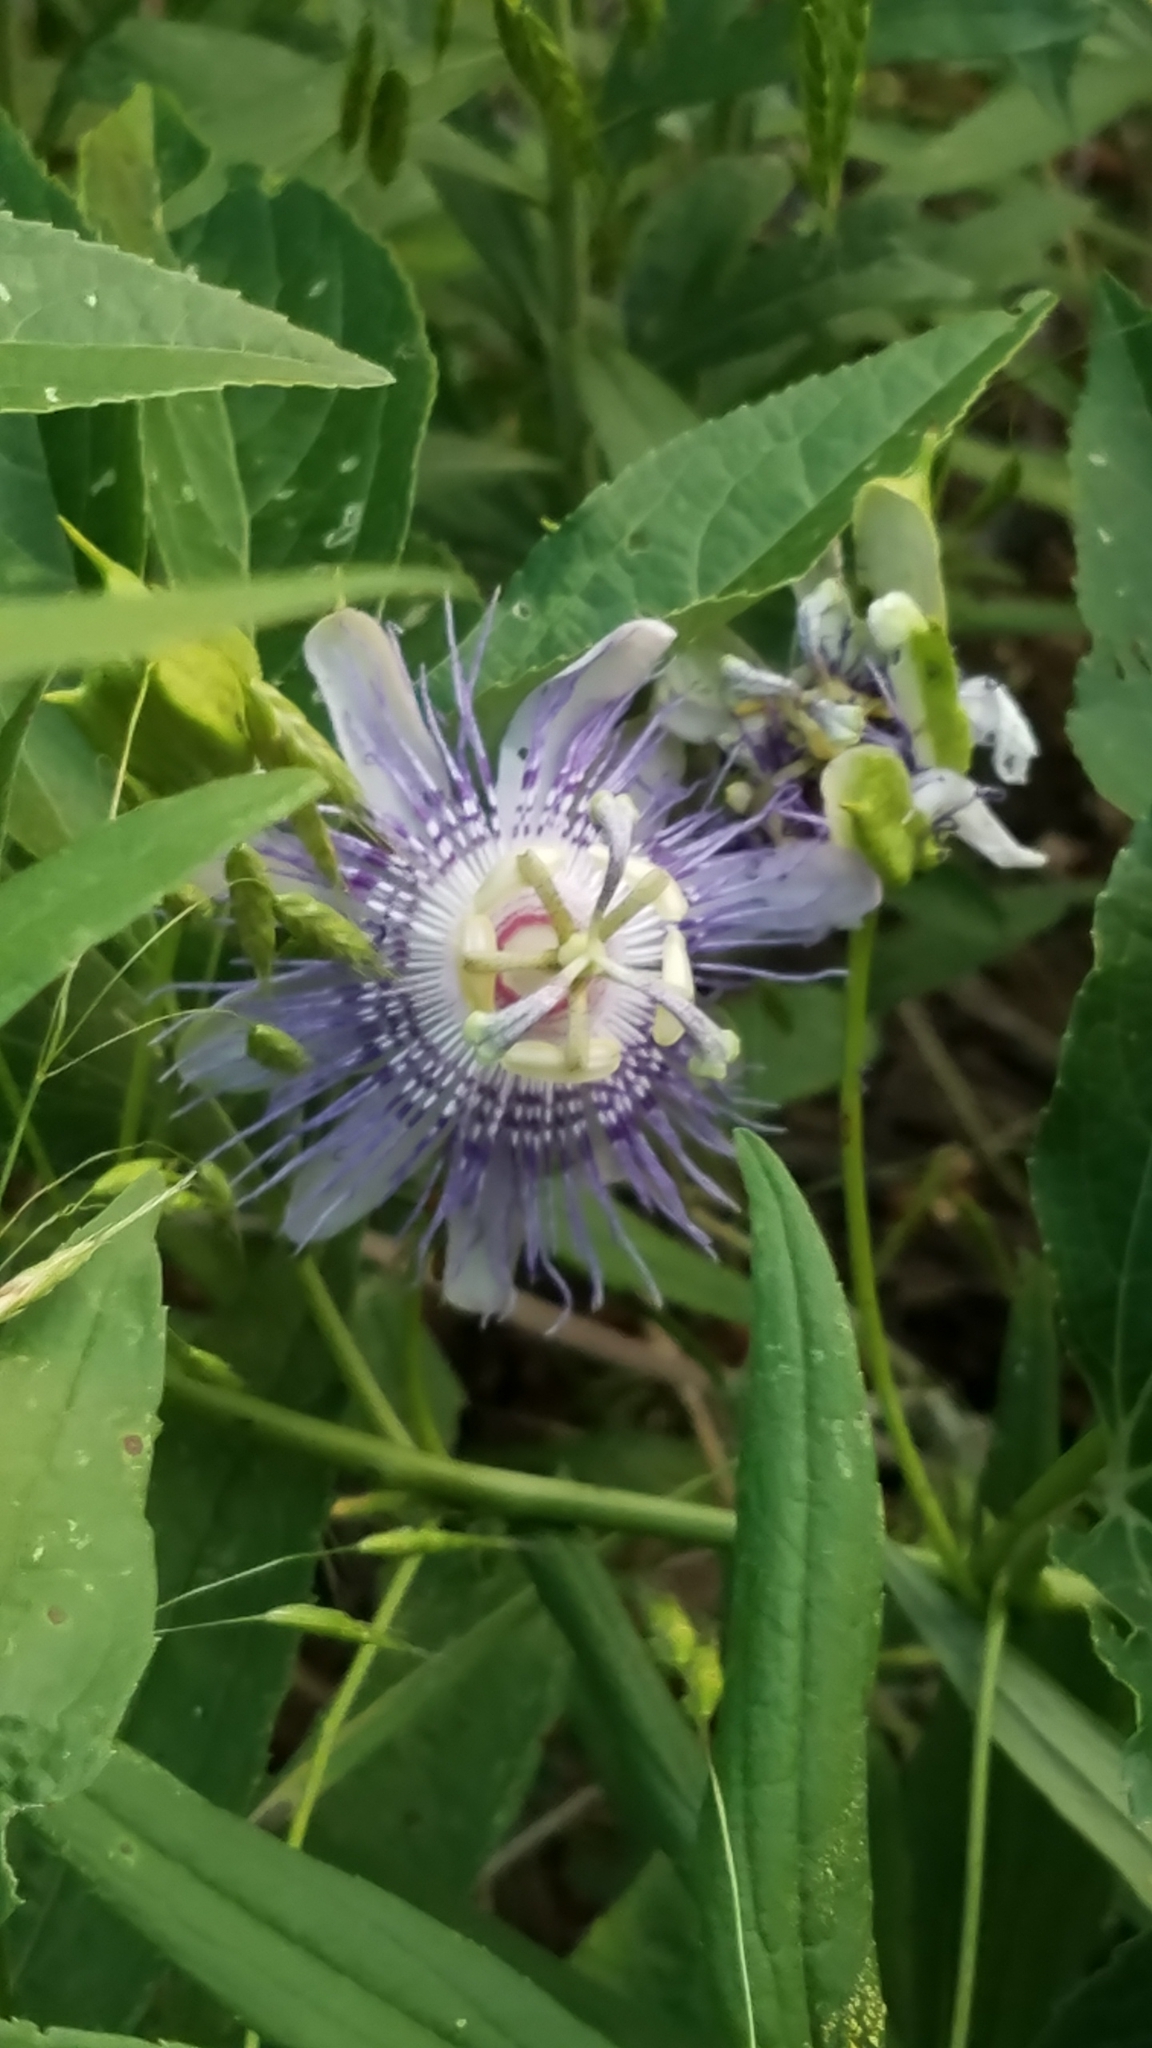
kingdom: Plantae
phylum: Tracheophyta
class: Magnoliopsida
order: Malpighiales
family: Passifloraceae
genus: Passiflora
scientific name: Passiflora incarnata
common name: Apricot-vine
